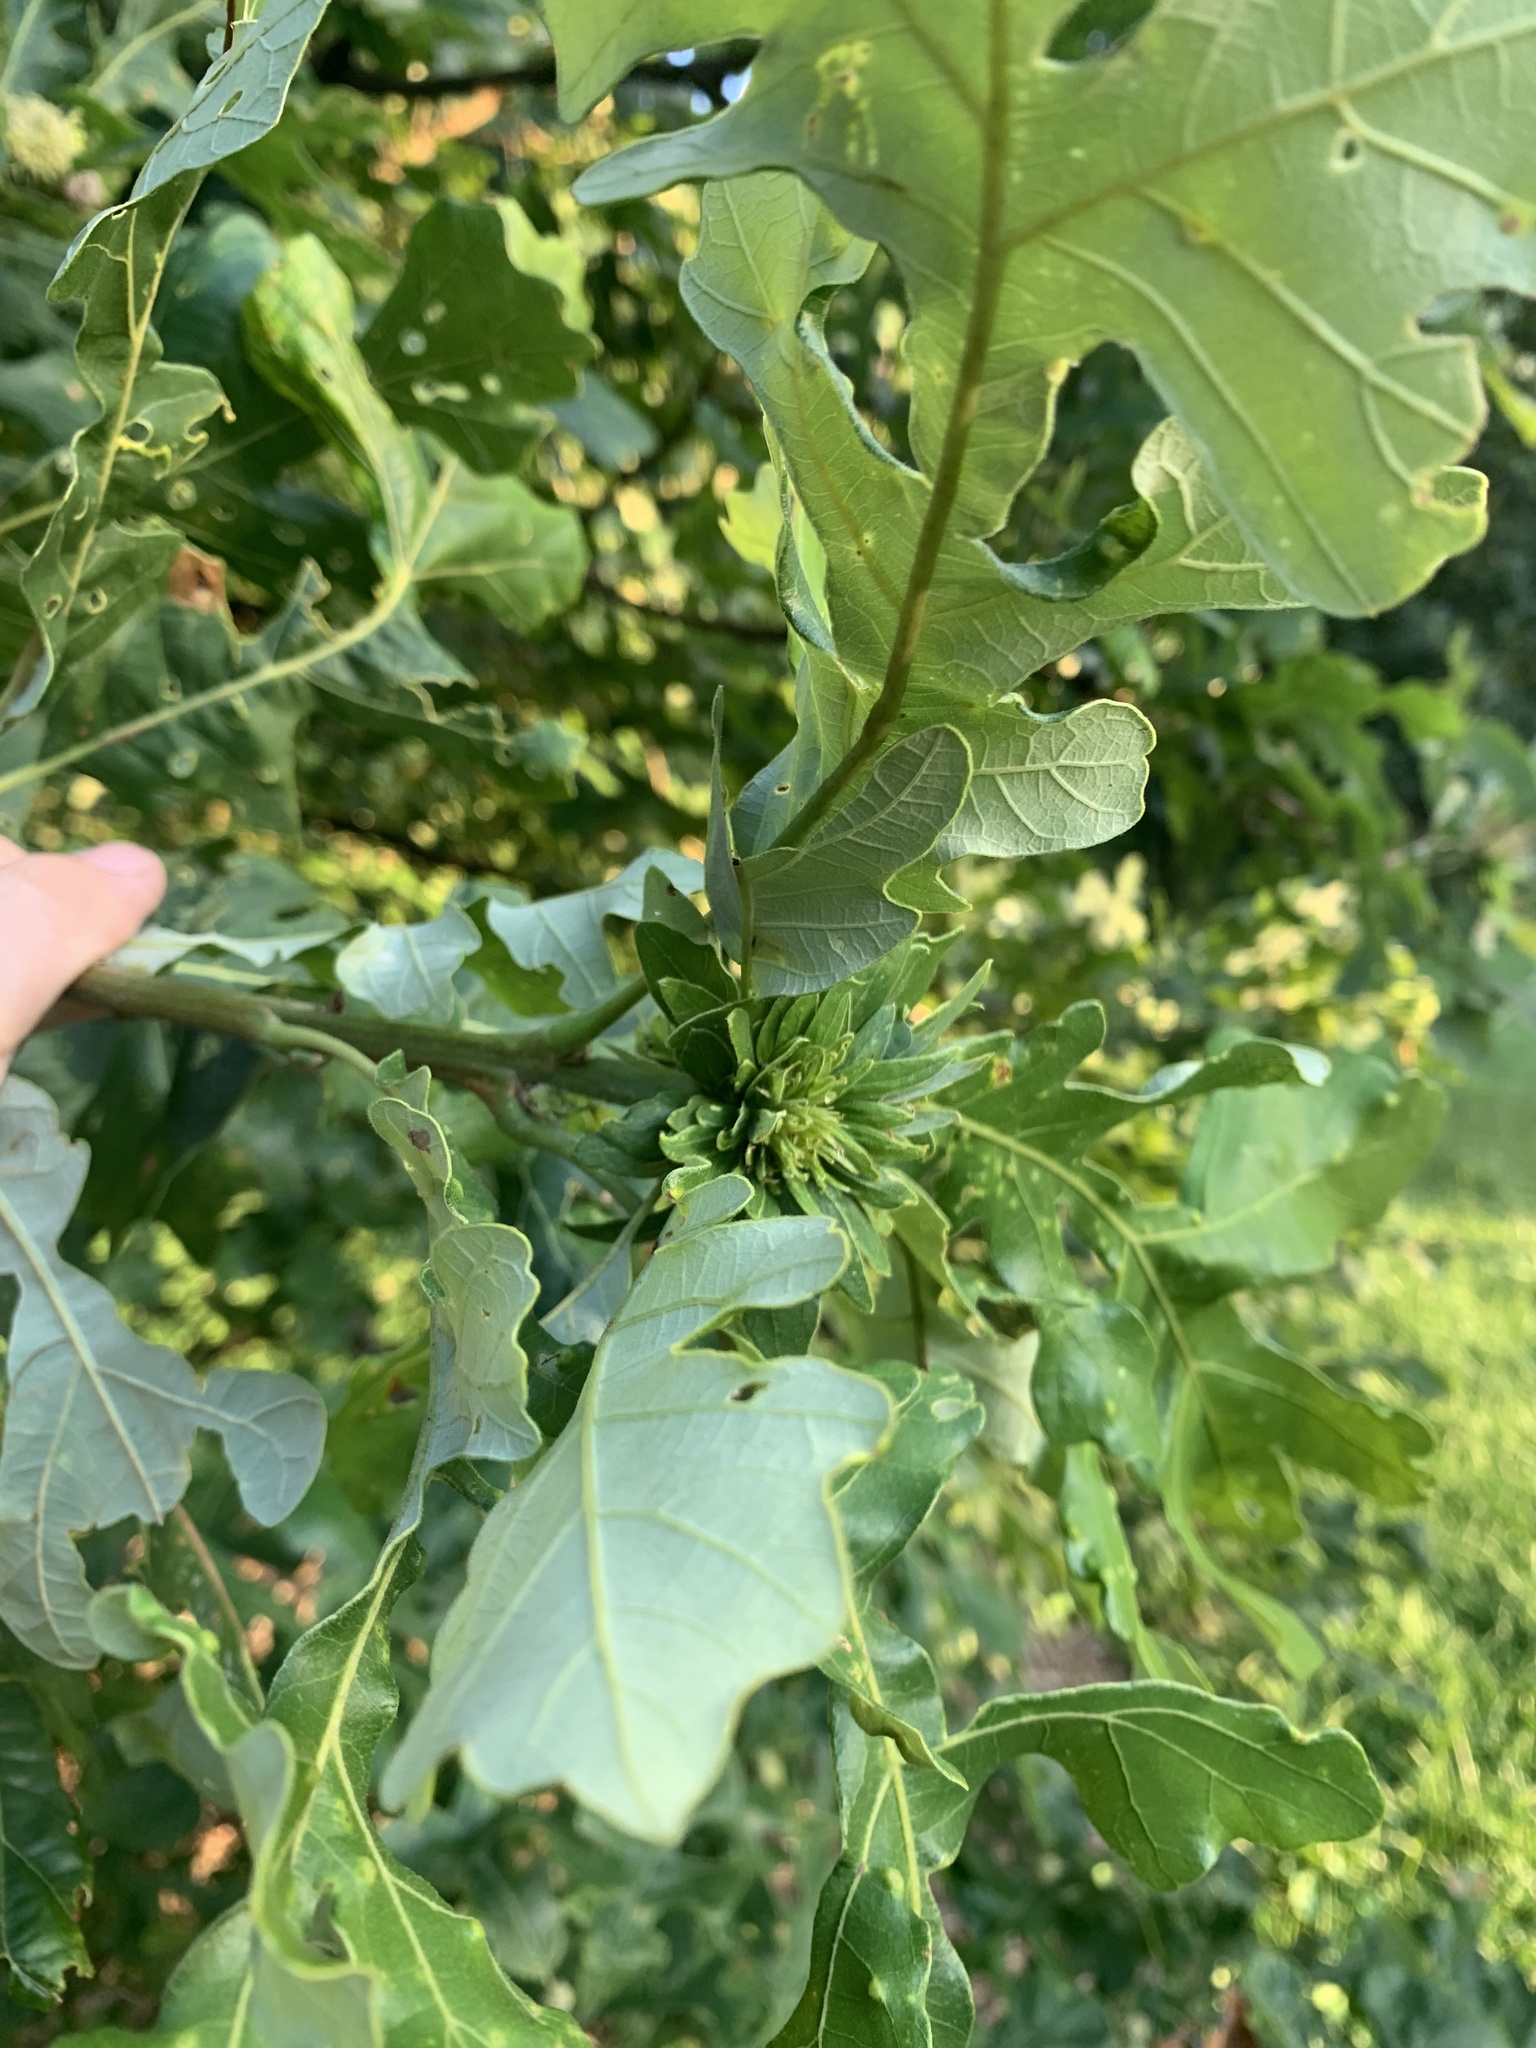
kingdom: Animalia
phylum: Arthropoda
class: Insecta
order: Hymenoptera
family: Cynipidae
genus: Andricus
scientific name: Andricus
